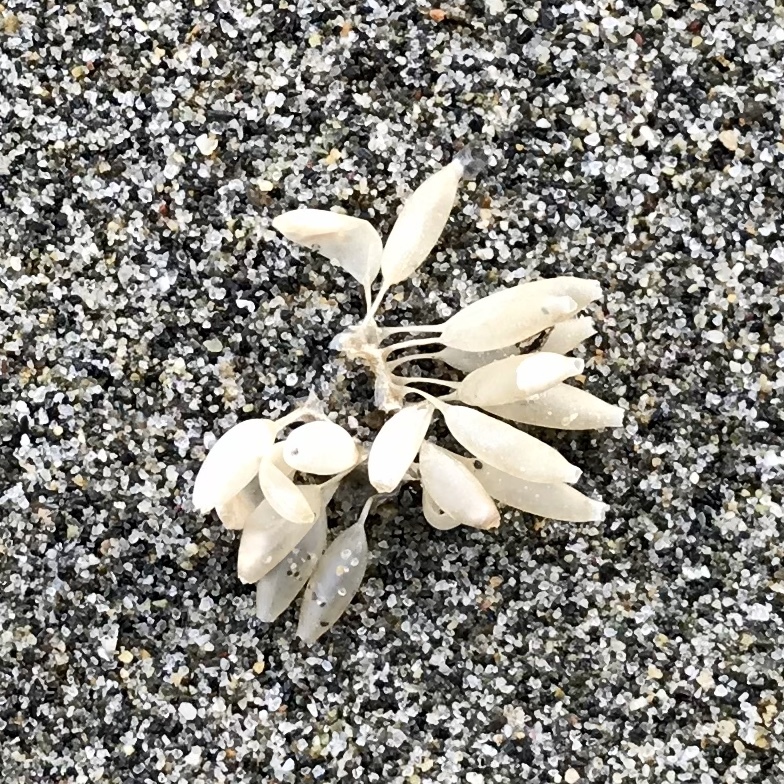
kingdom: Animalia
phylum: Mollusca
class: Gastropoda
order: Neogastropoda
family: Muricidae
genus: Nucella
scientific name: Nucella lamellosa
